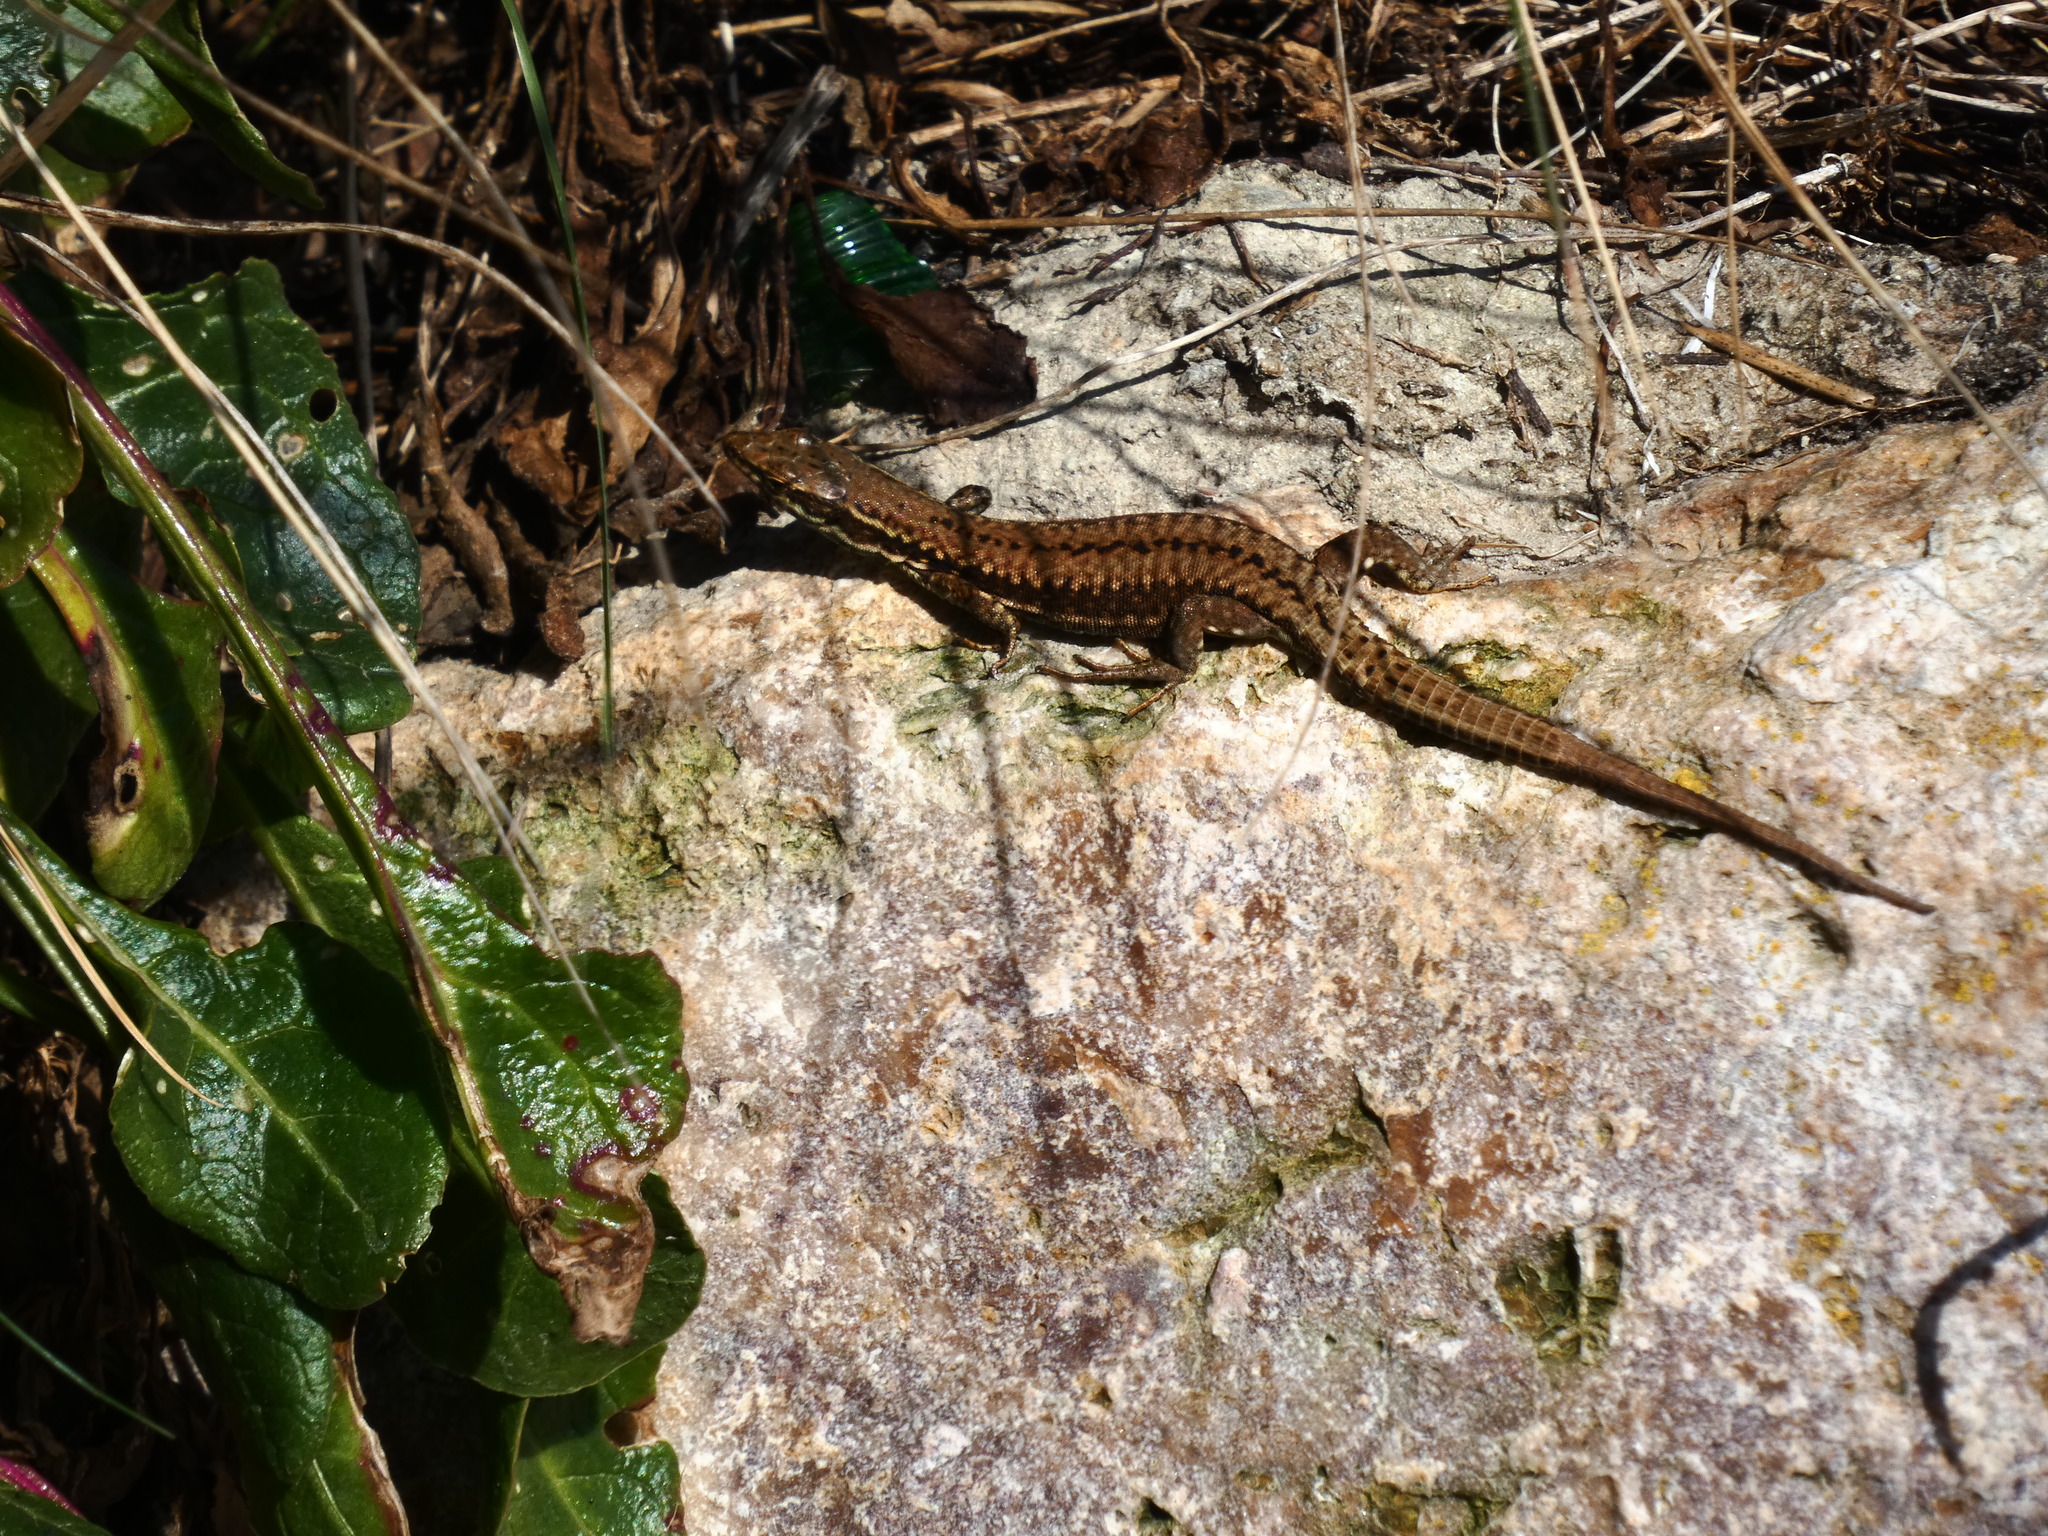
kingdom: Animalia
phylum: Chordata
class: Squamata
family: Lacertidae
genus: Podarcis
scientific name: Podarcis muralis
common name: Common wall lizard
